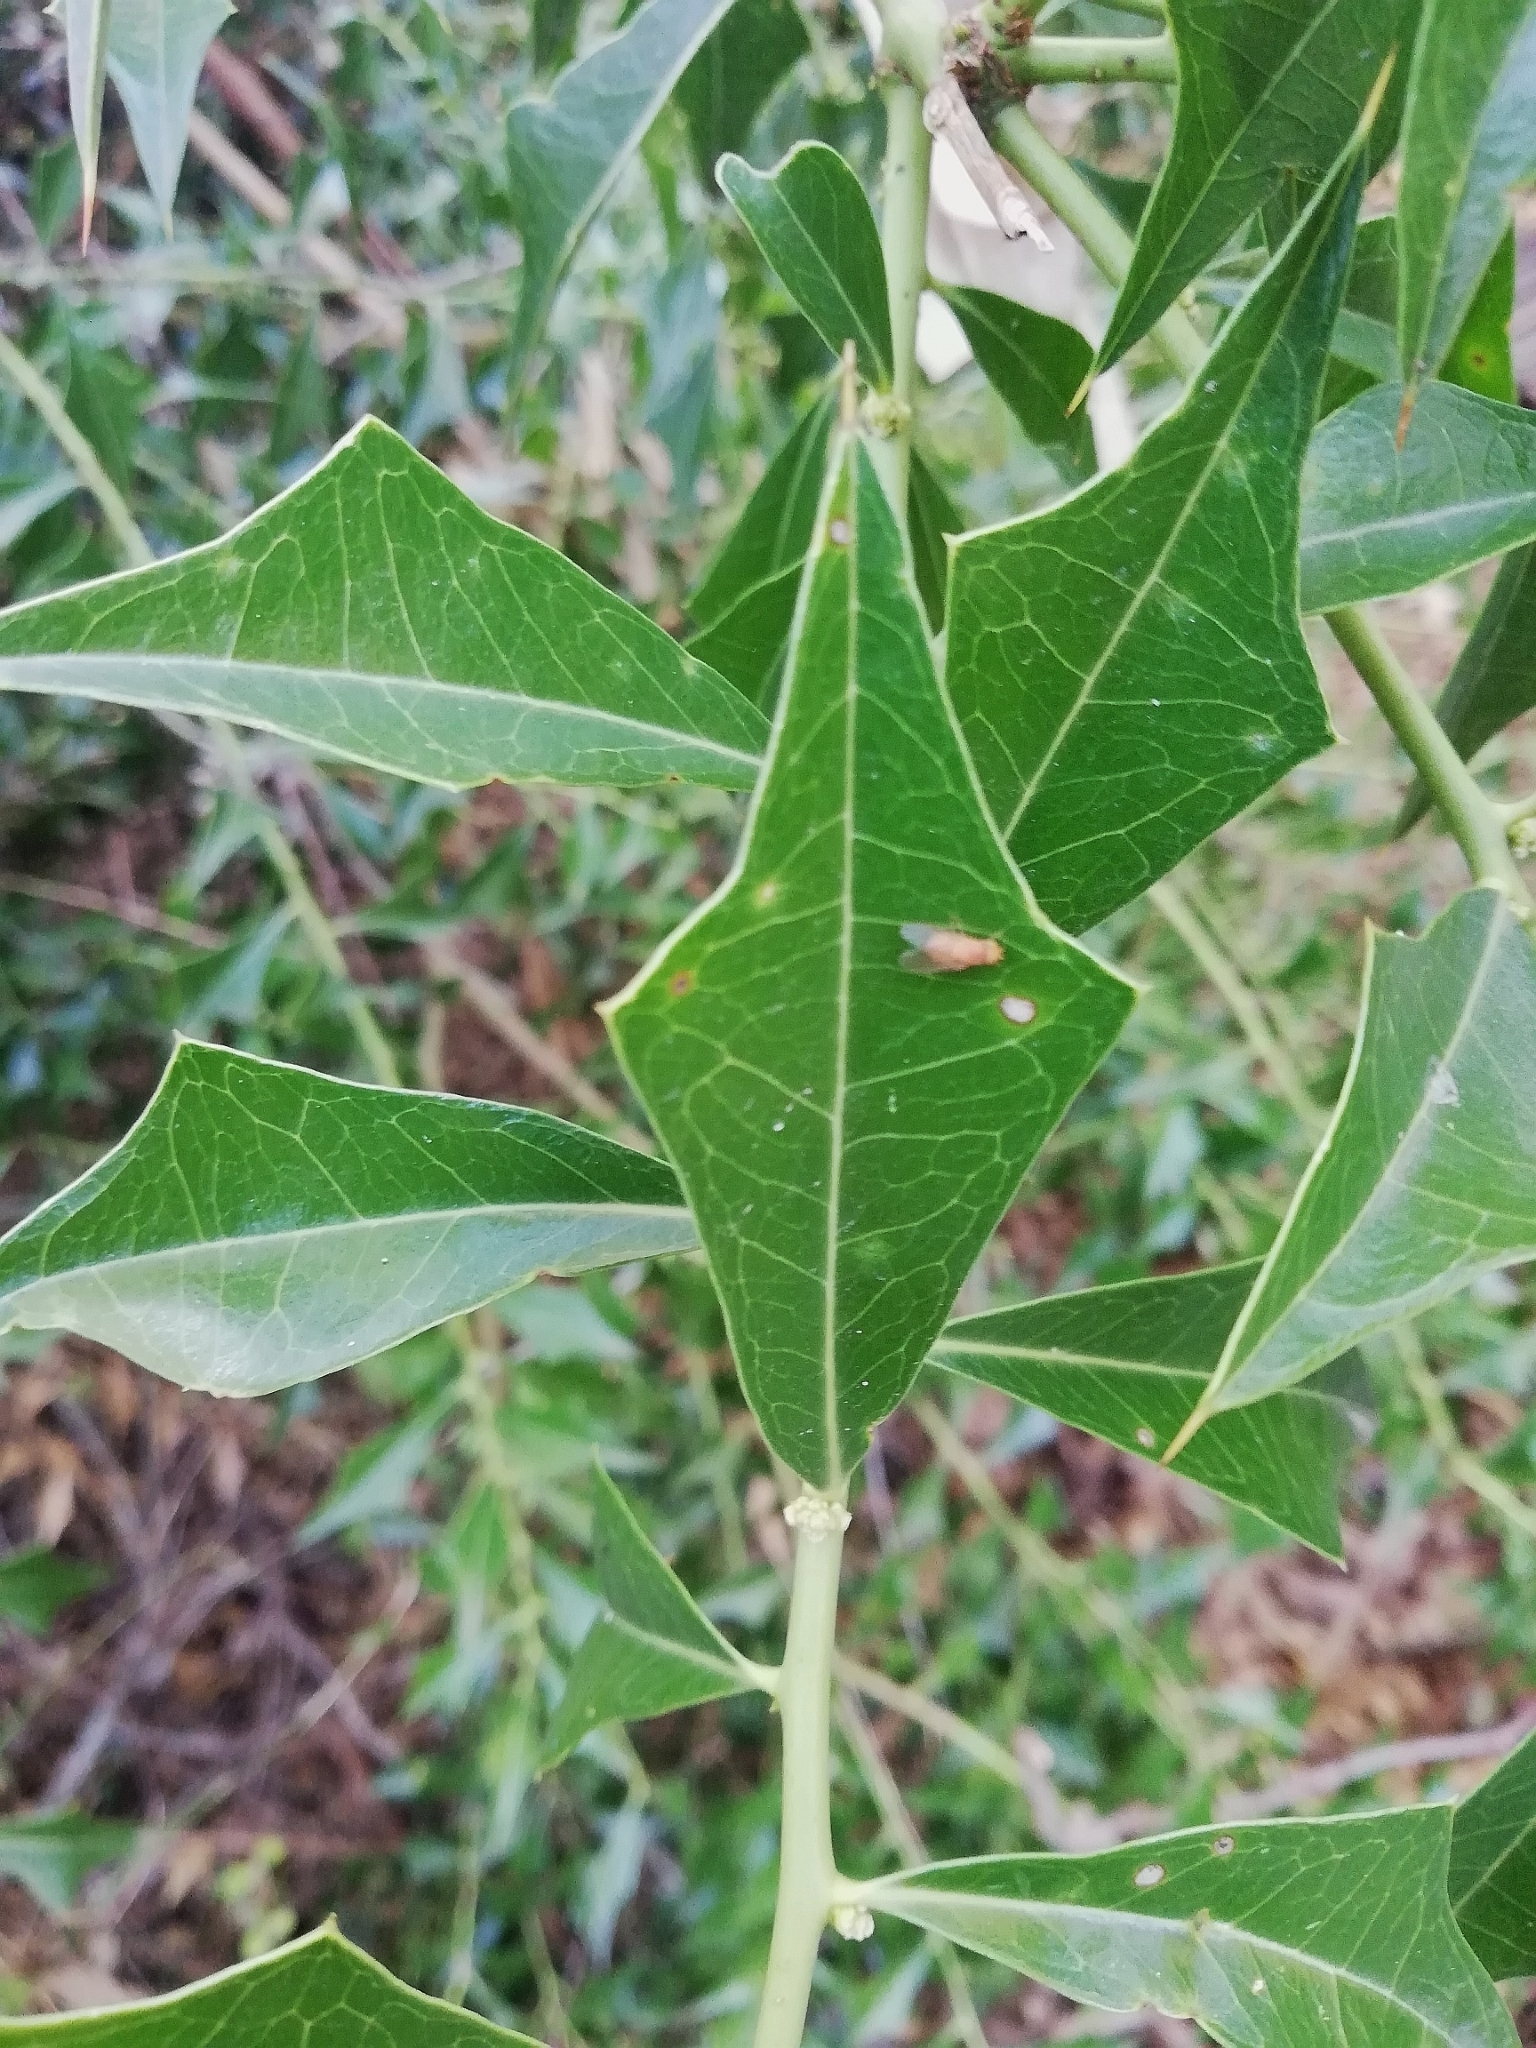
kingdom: Plantae
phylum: Tracheophyta
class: Magnoliopsida
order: Santalales
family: Cervantesiaceae
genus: Jodina
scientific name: Jodina rhombifolia
